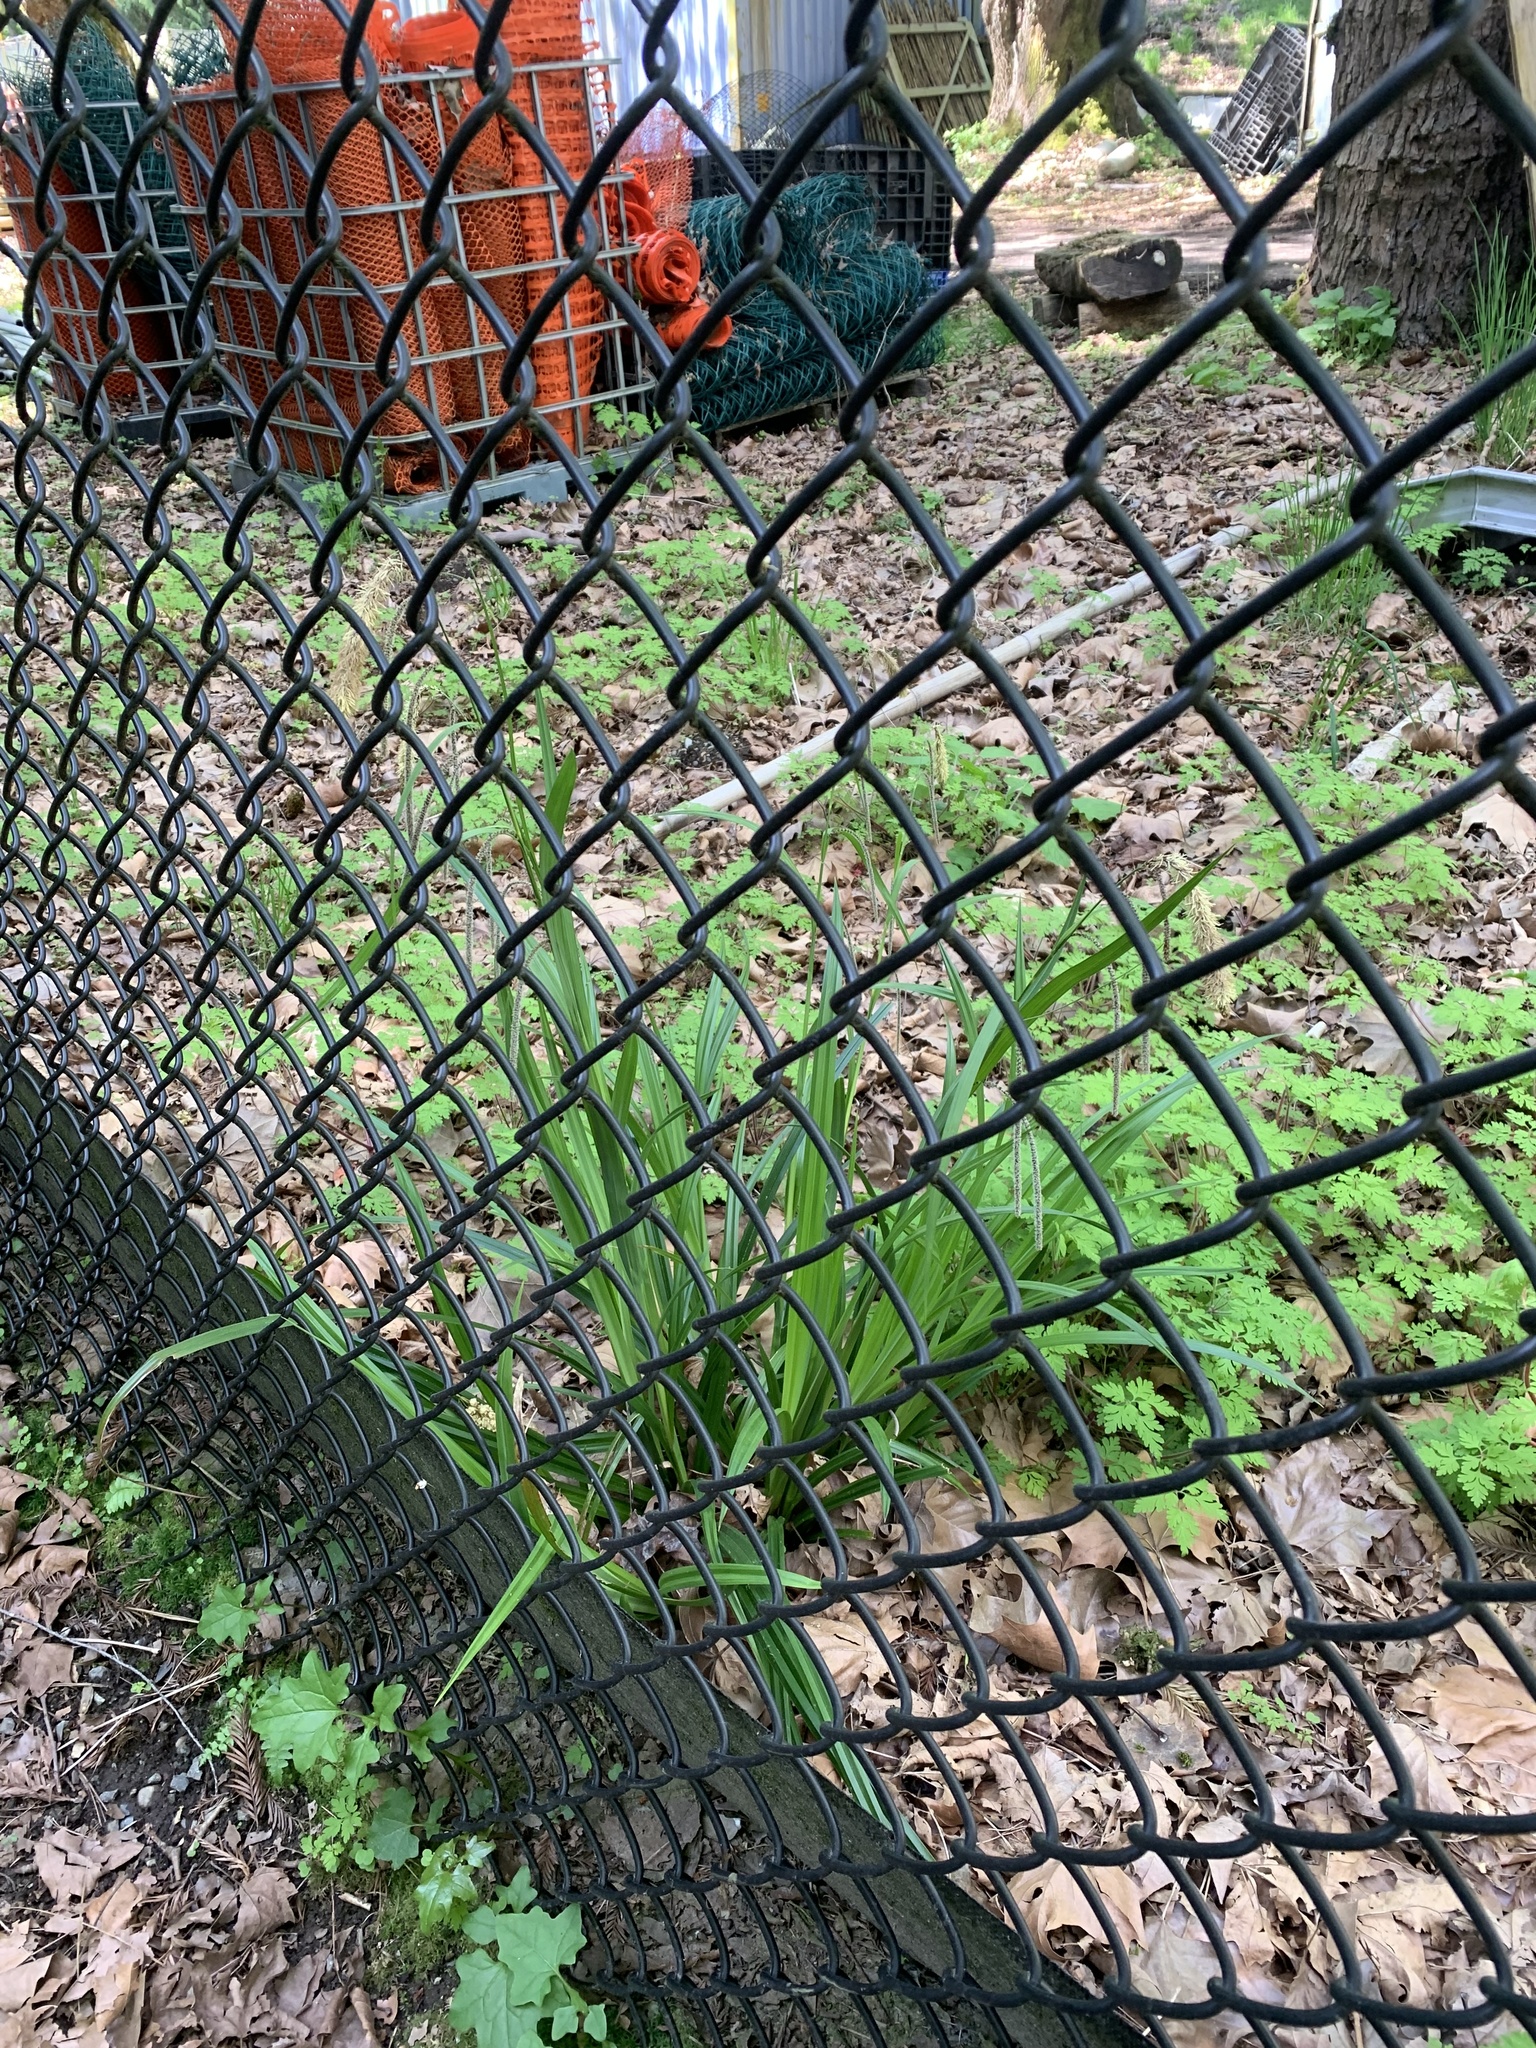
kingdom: Plantae
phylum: Tracheophyta
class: Liliopsida
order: Poales
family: Cyperaceae
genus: Carex
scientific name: Carex pendula
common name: Pendulous sedge
